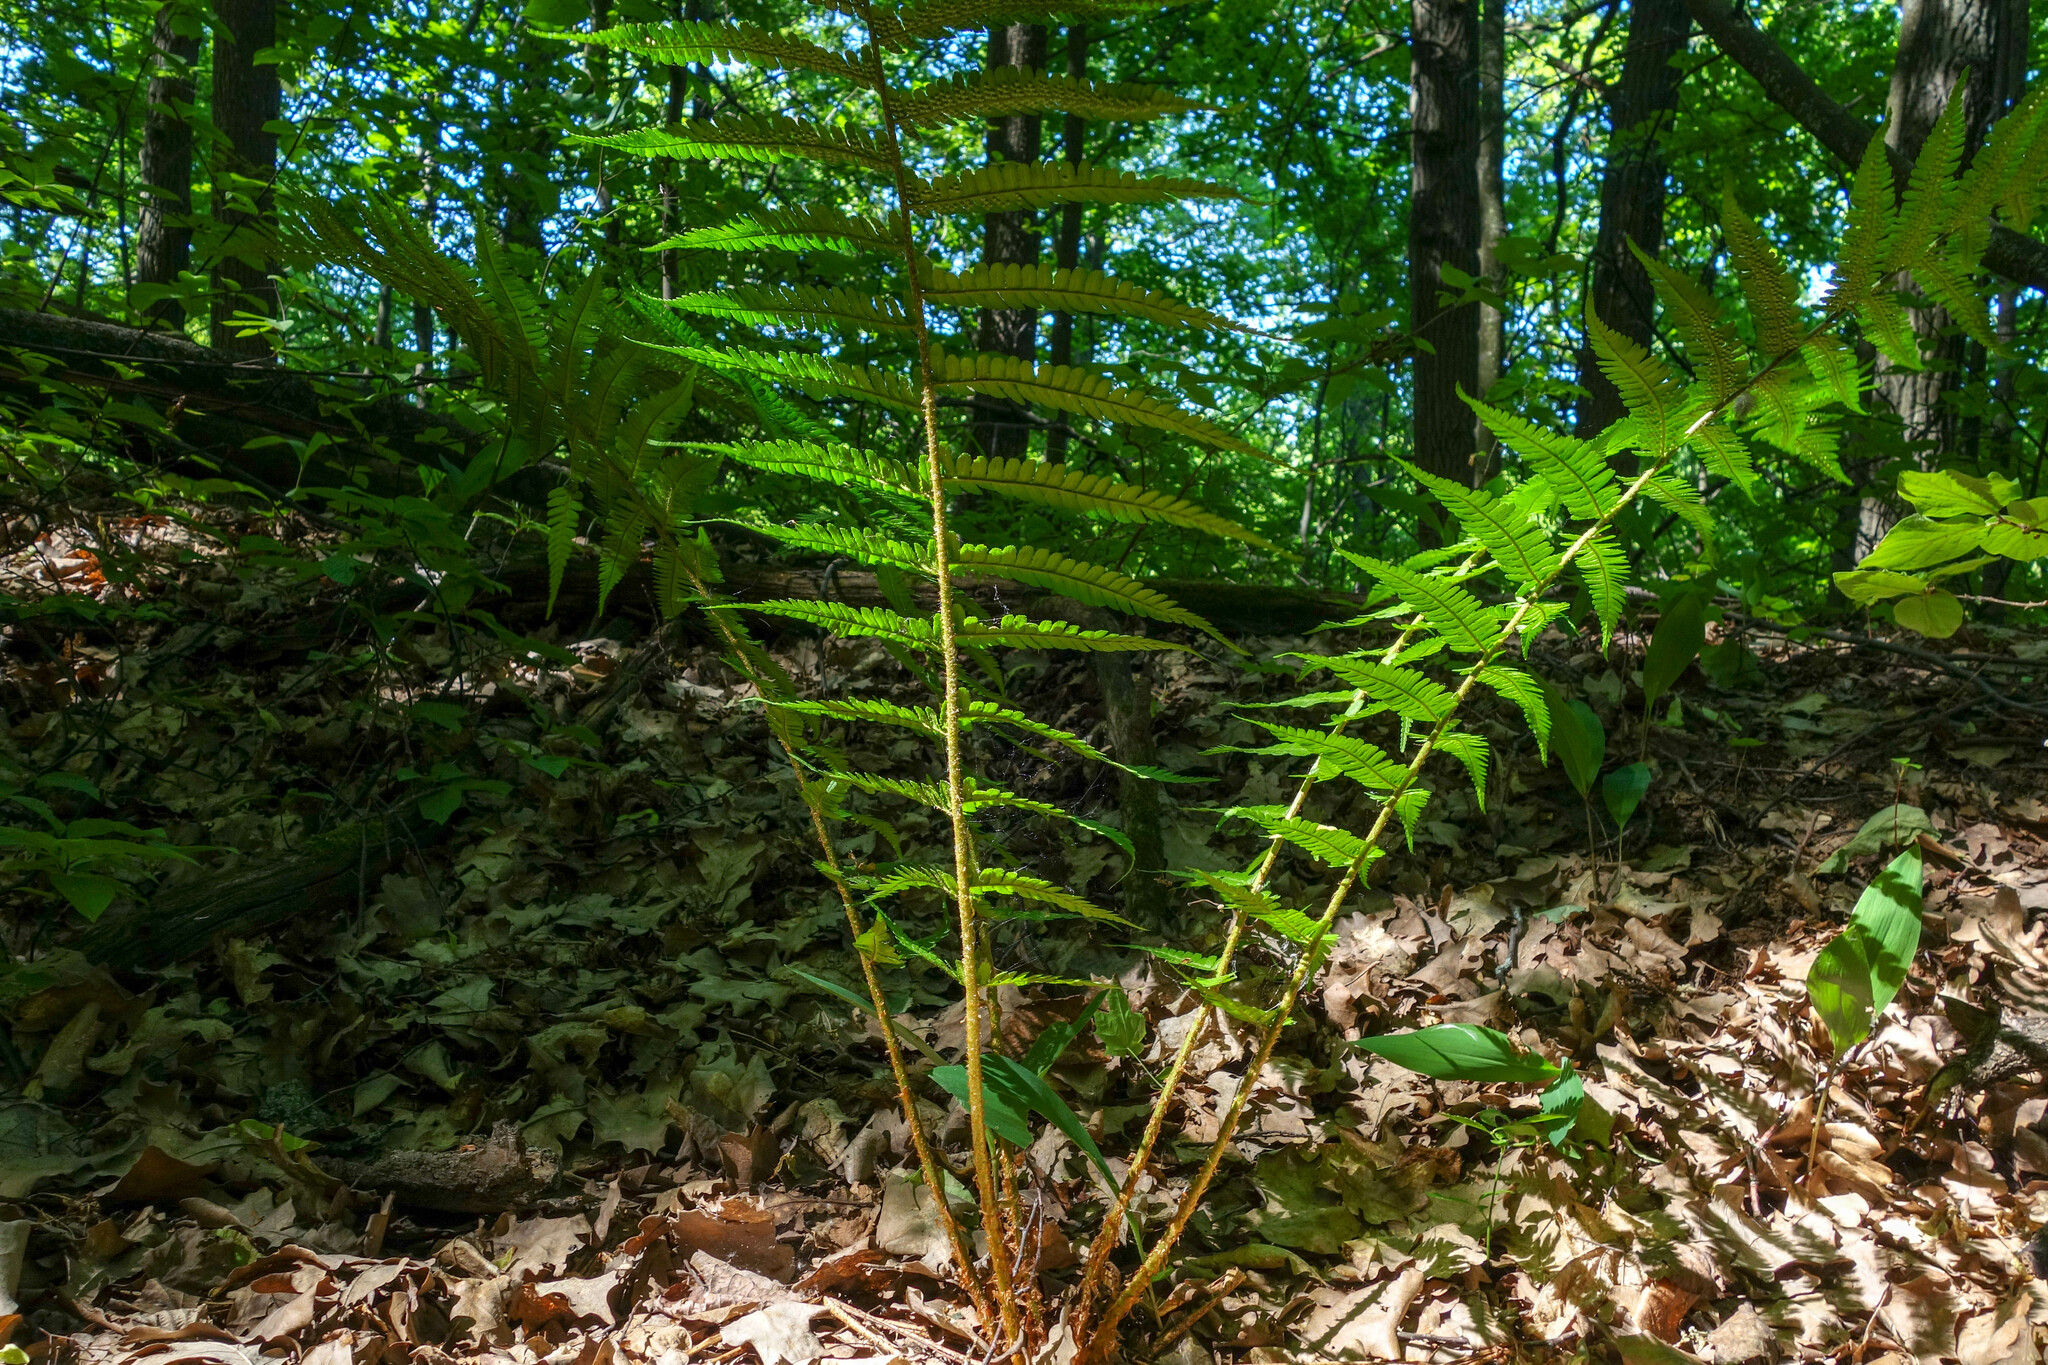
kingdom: Plantae
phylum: Tracheophyta
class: Polypodiopsida
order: Polypodiales
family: Dryopteridaceae
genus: Dryopteris
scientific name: Dryopteris filix-mas
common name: Male fern
